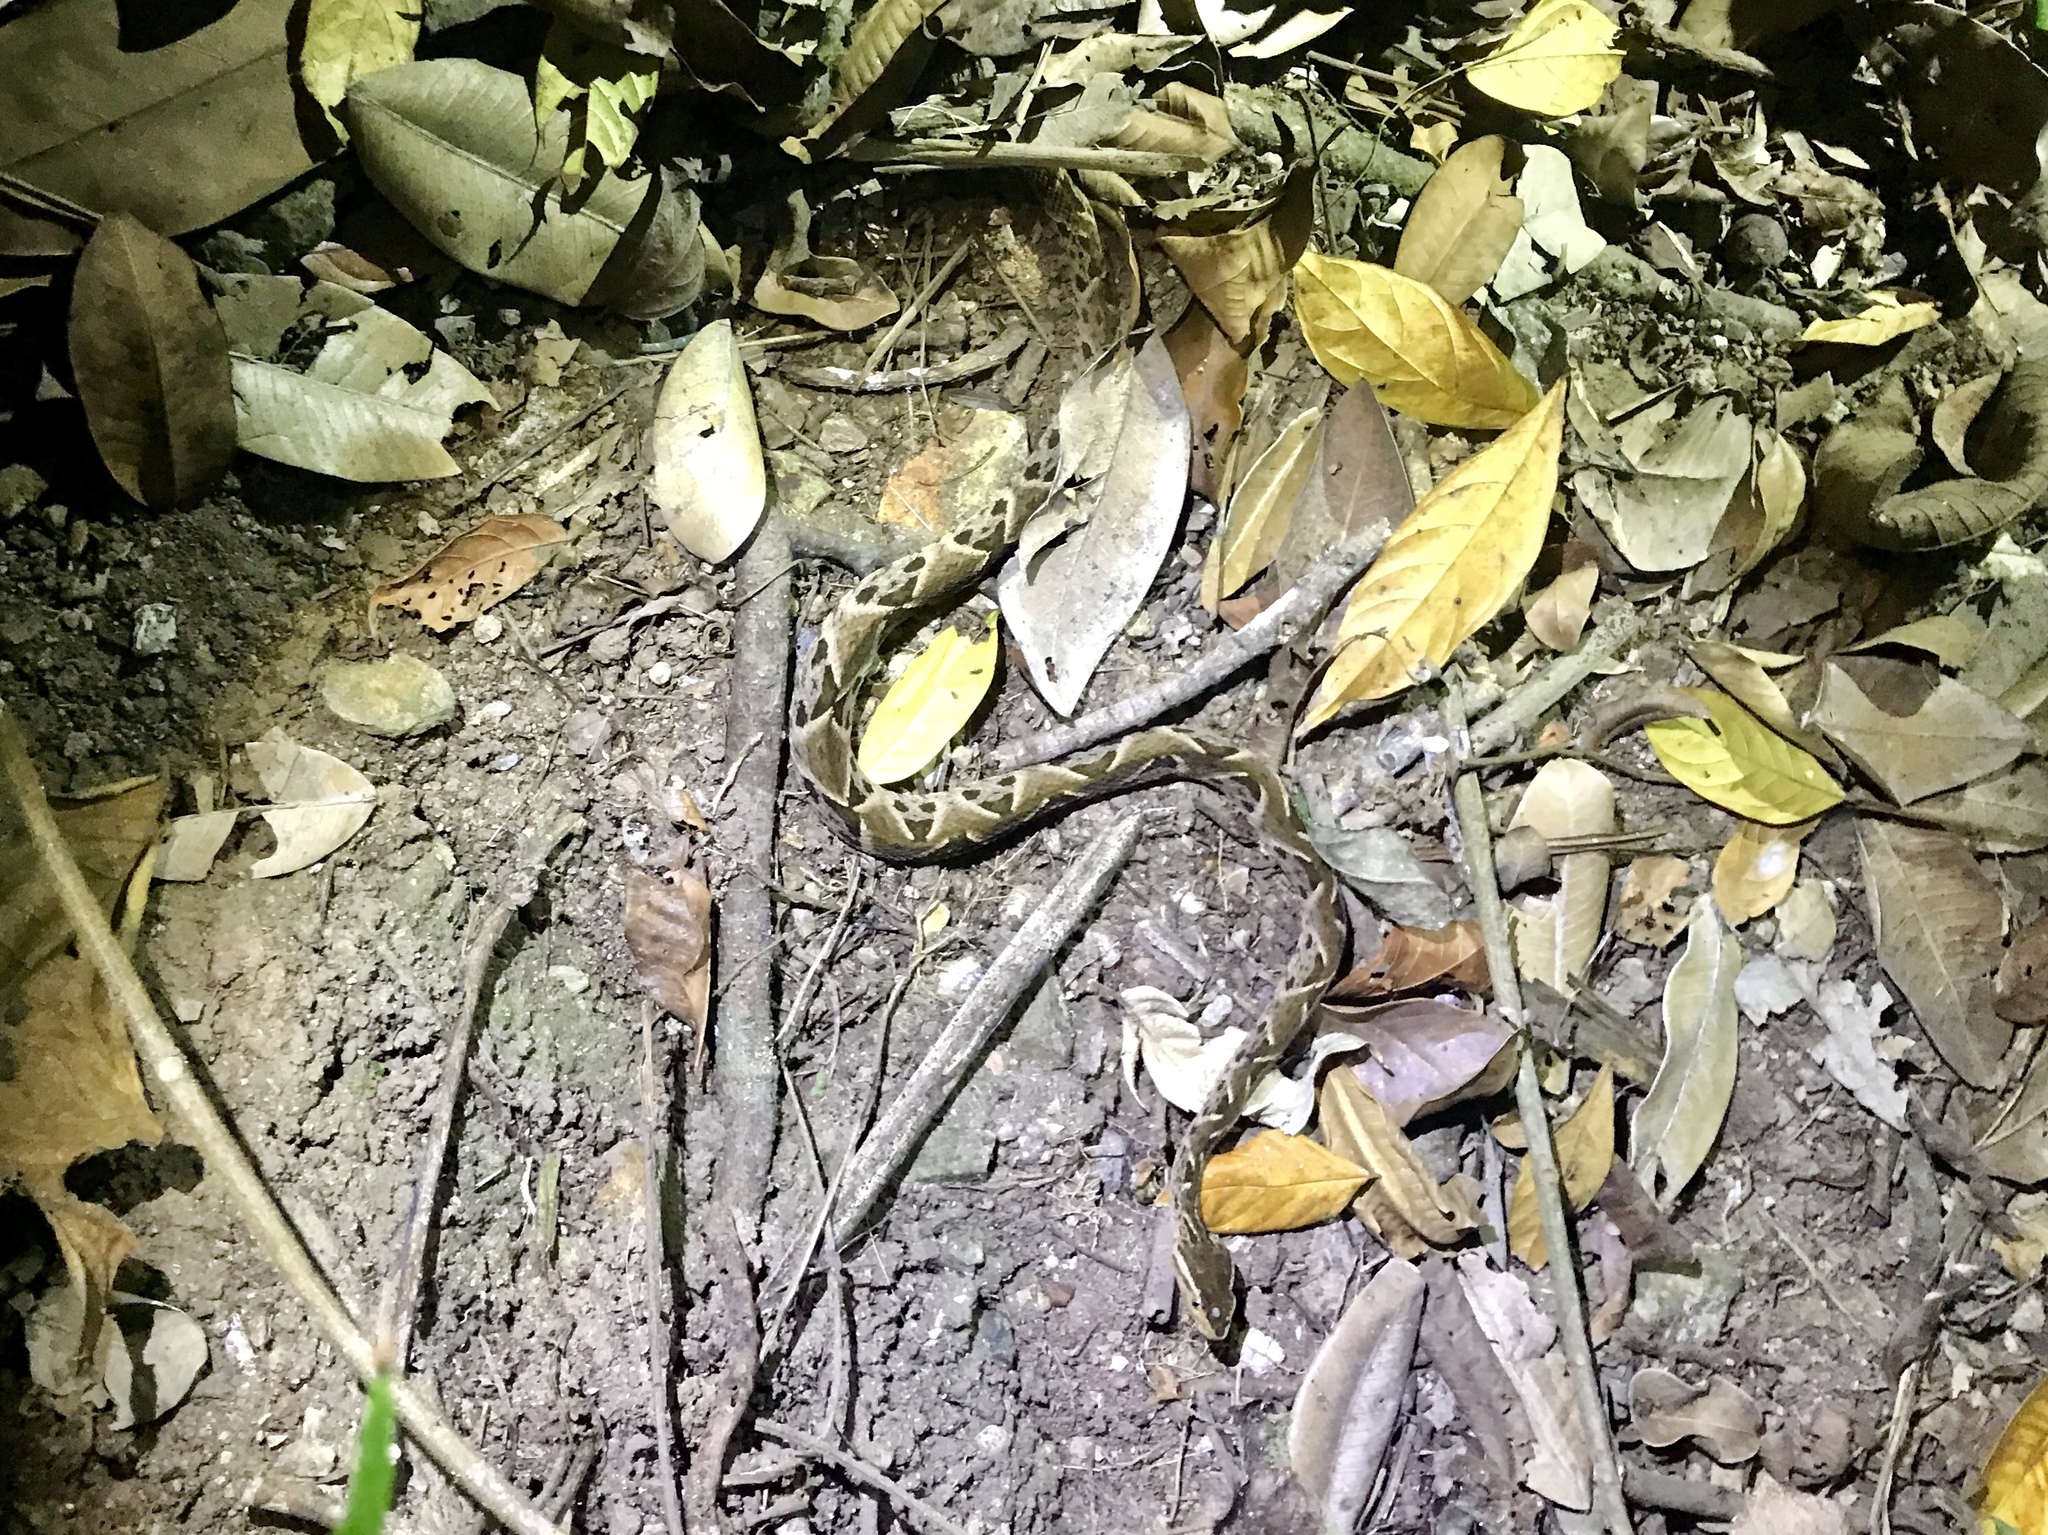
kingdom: Animalia
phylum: Chordata
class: Squamata
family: Viperidae
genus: Bothrops
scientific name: Bothrops asper
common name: Terciopelo
